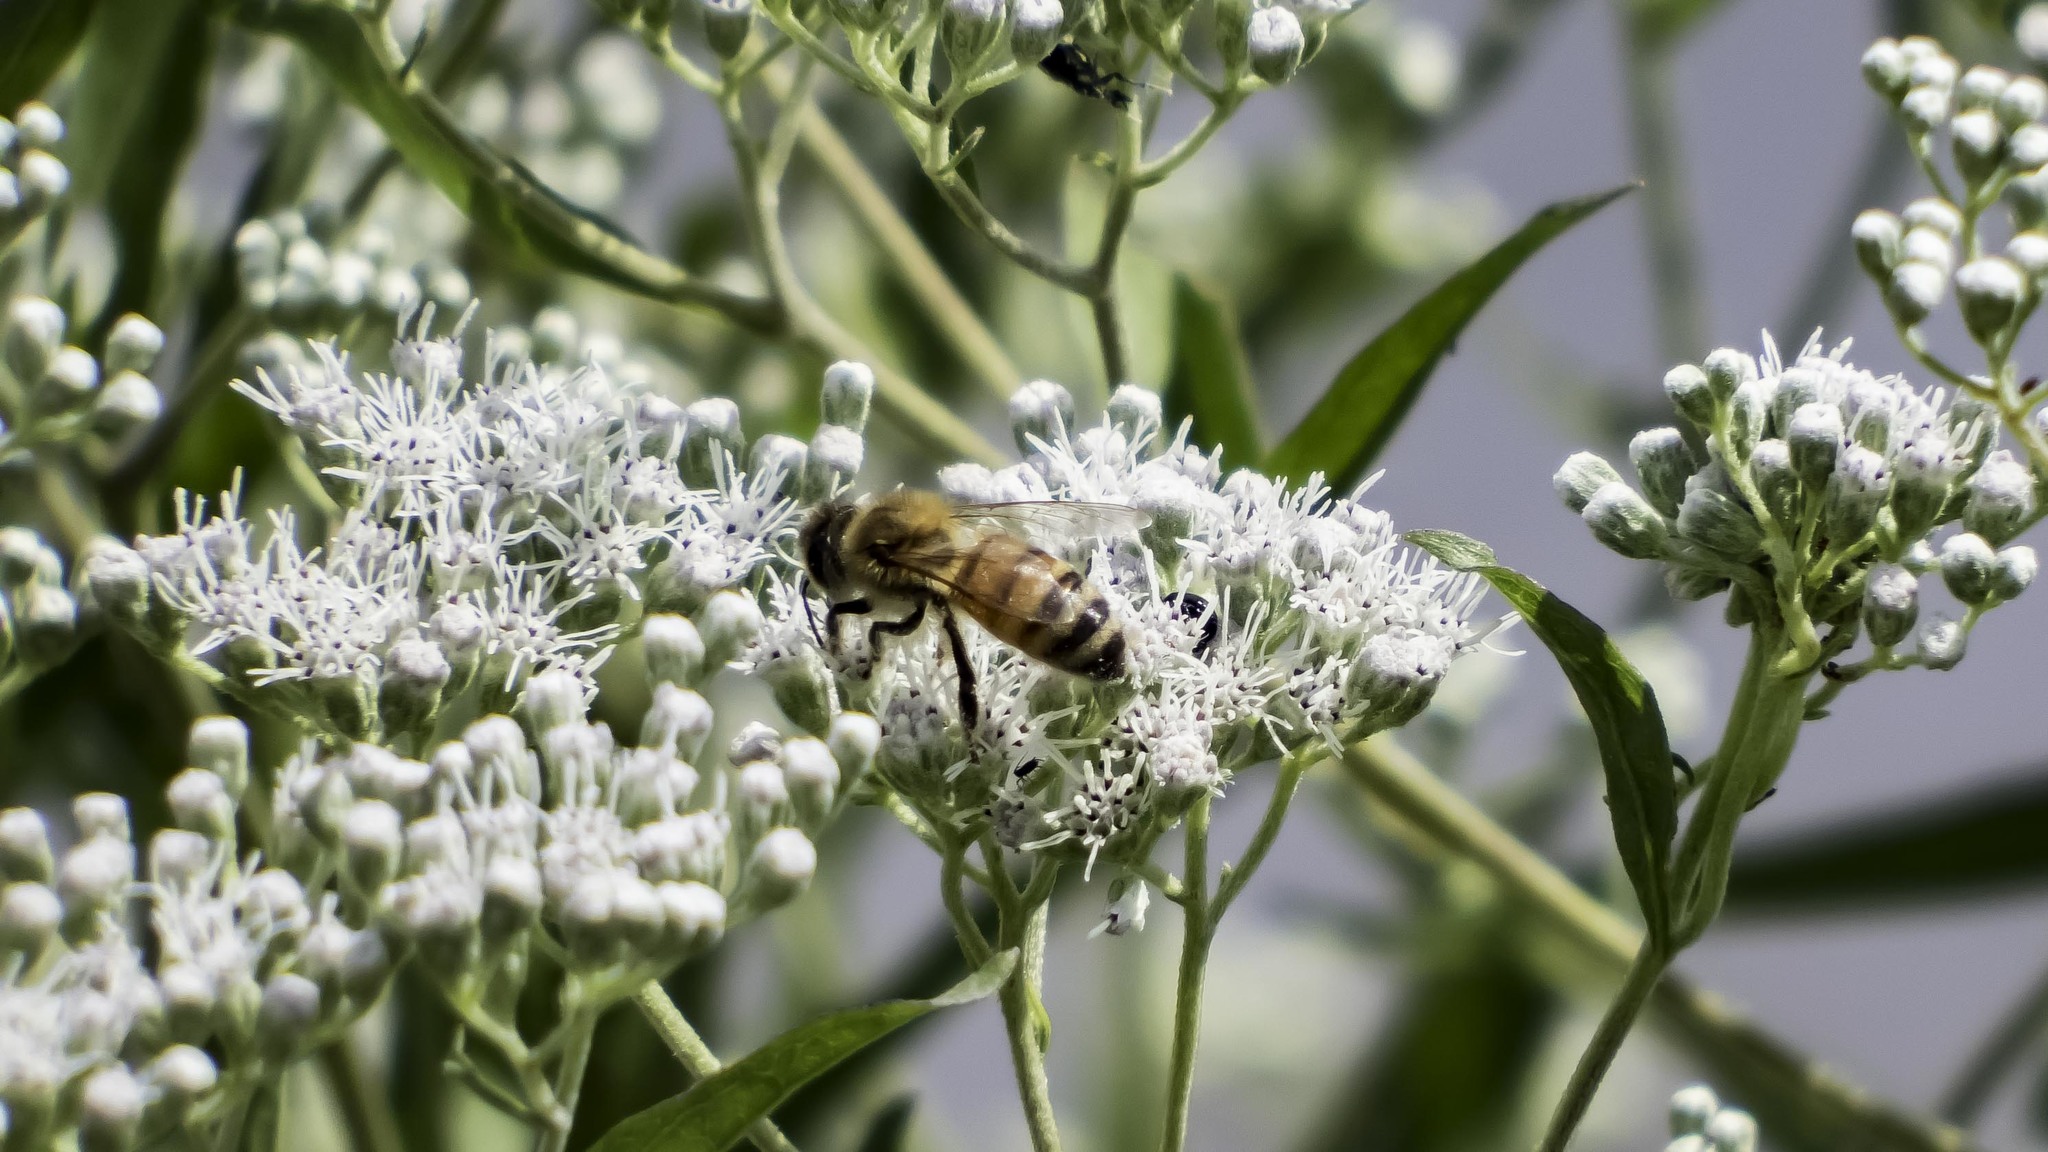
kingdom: Animalia
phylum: Arthropoda
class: Insecta
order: Hymenoptera
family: Apidae
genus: Apis
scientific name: Apis mellifera
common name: Honey bee
